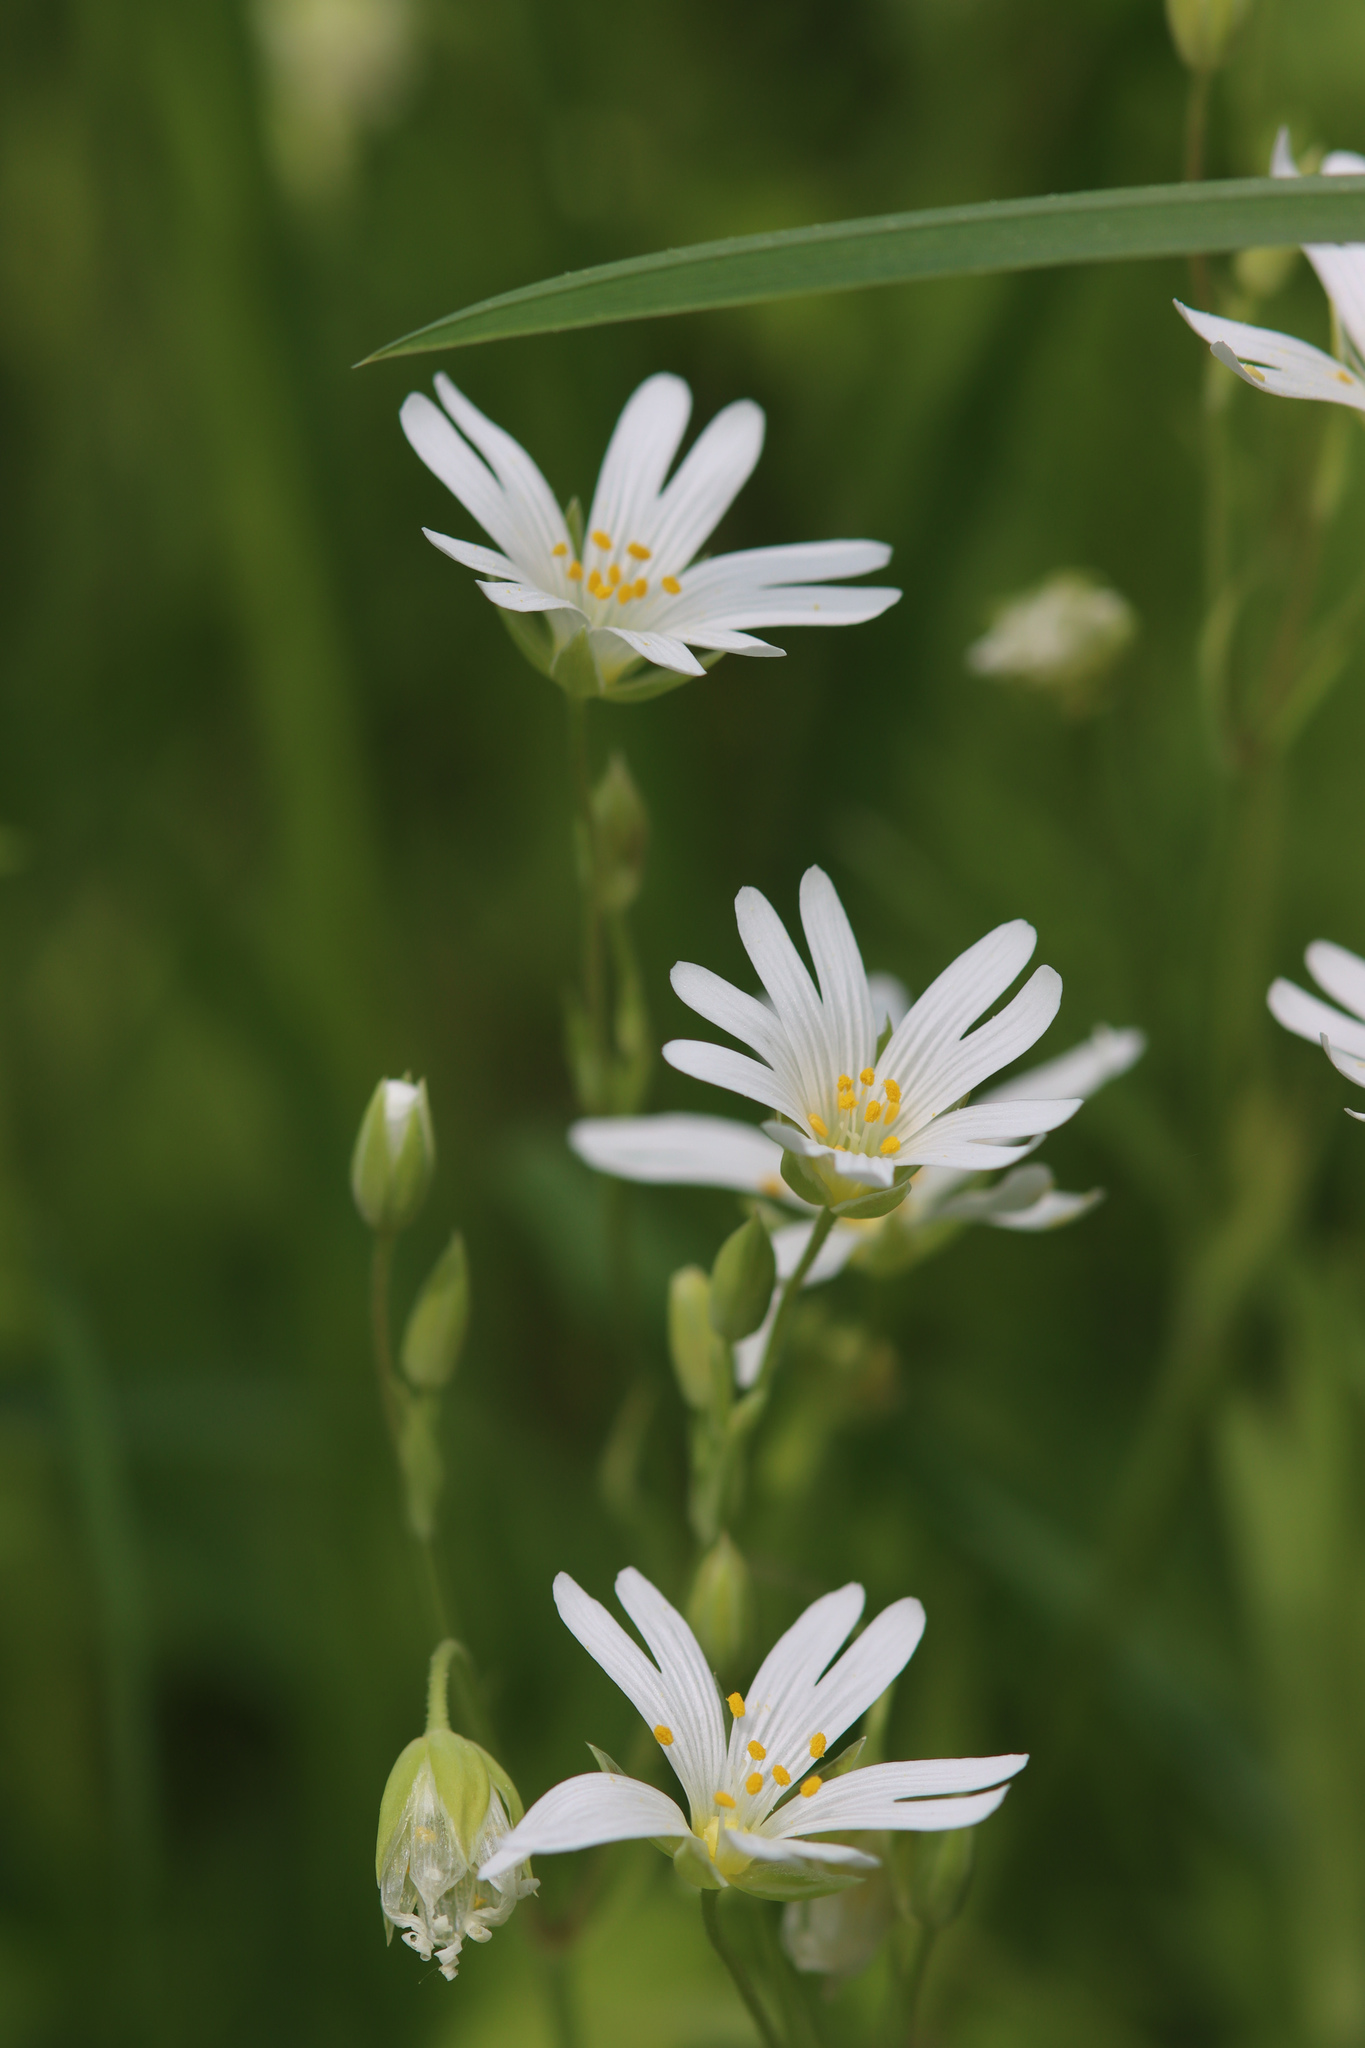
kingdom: Plantae
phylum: Tracheophyta
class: Magnoliopsida
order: Caryophyllales
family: Caryophyllaceae
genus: Rabelera
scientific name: Rabelera holostea
